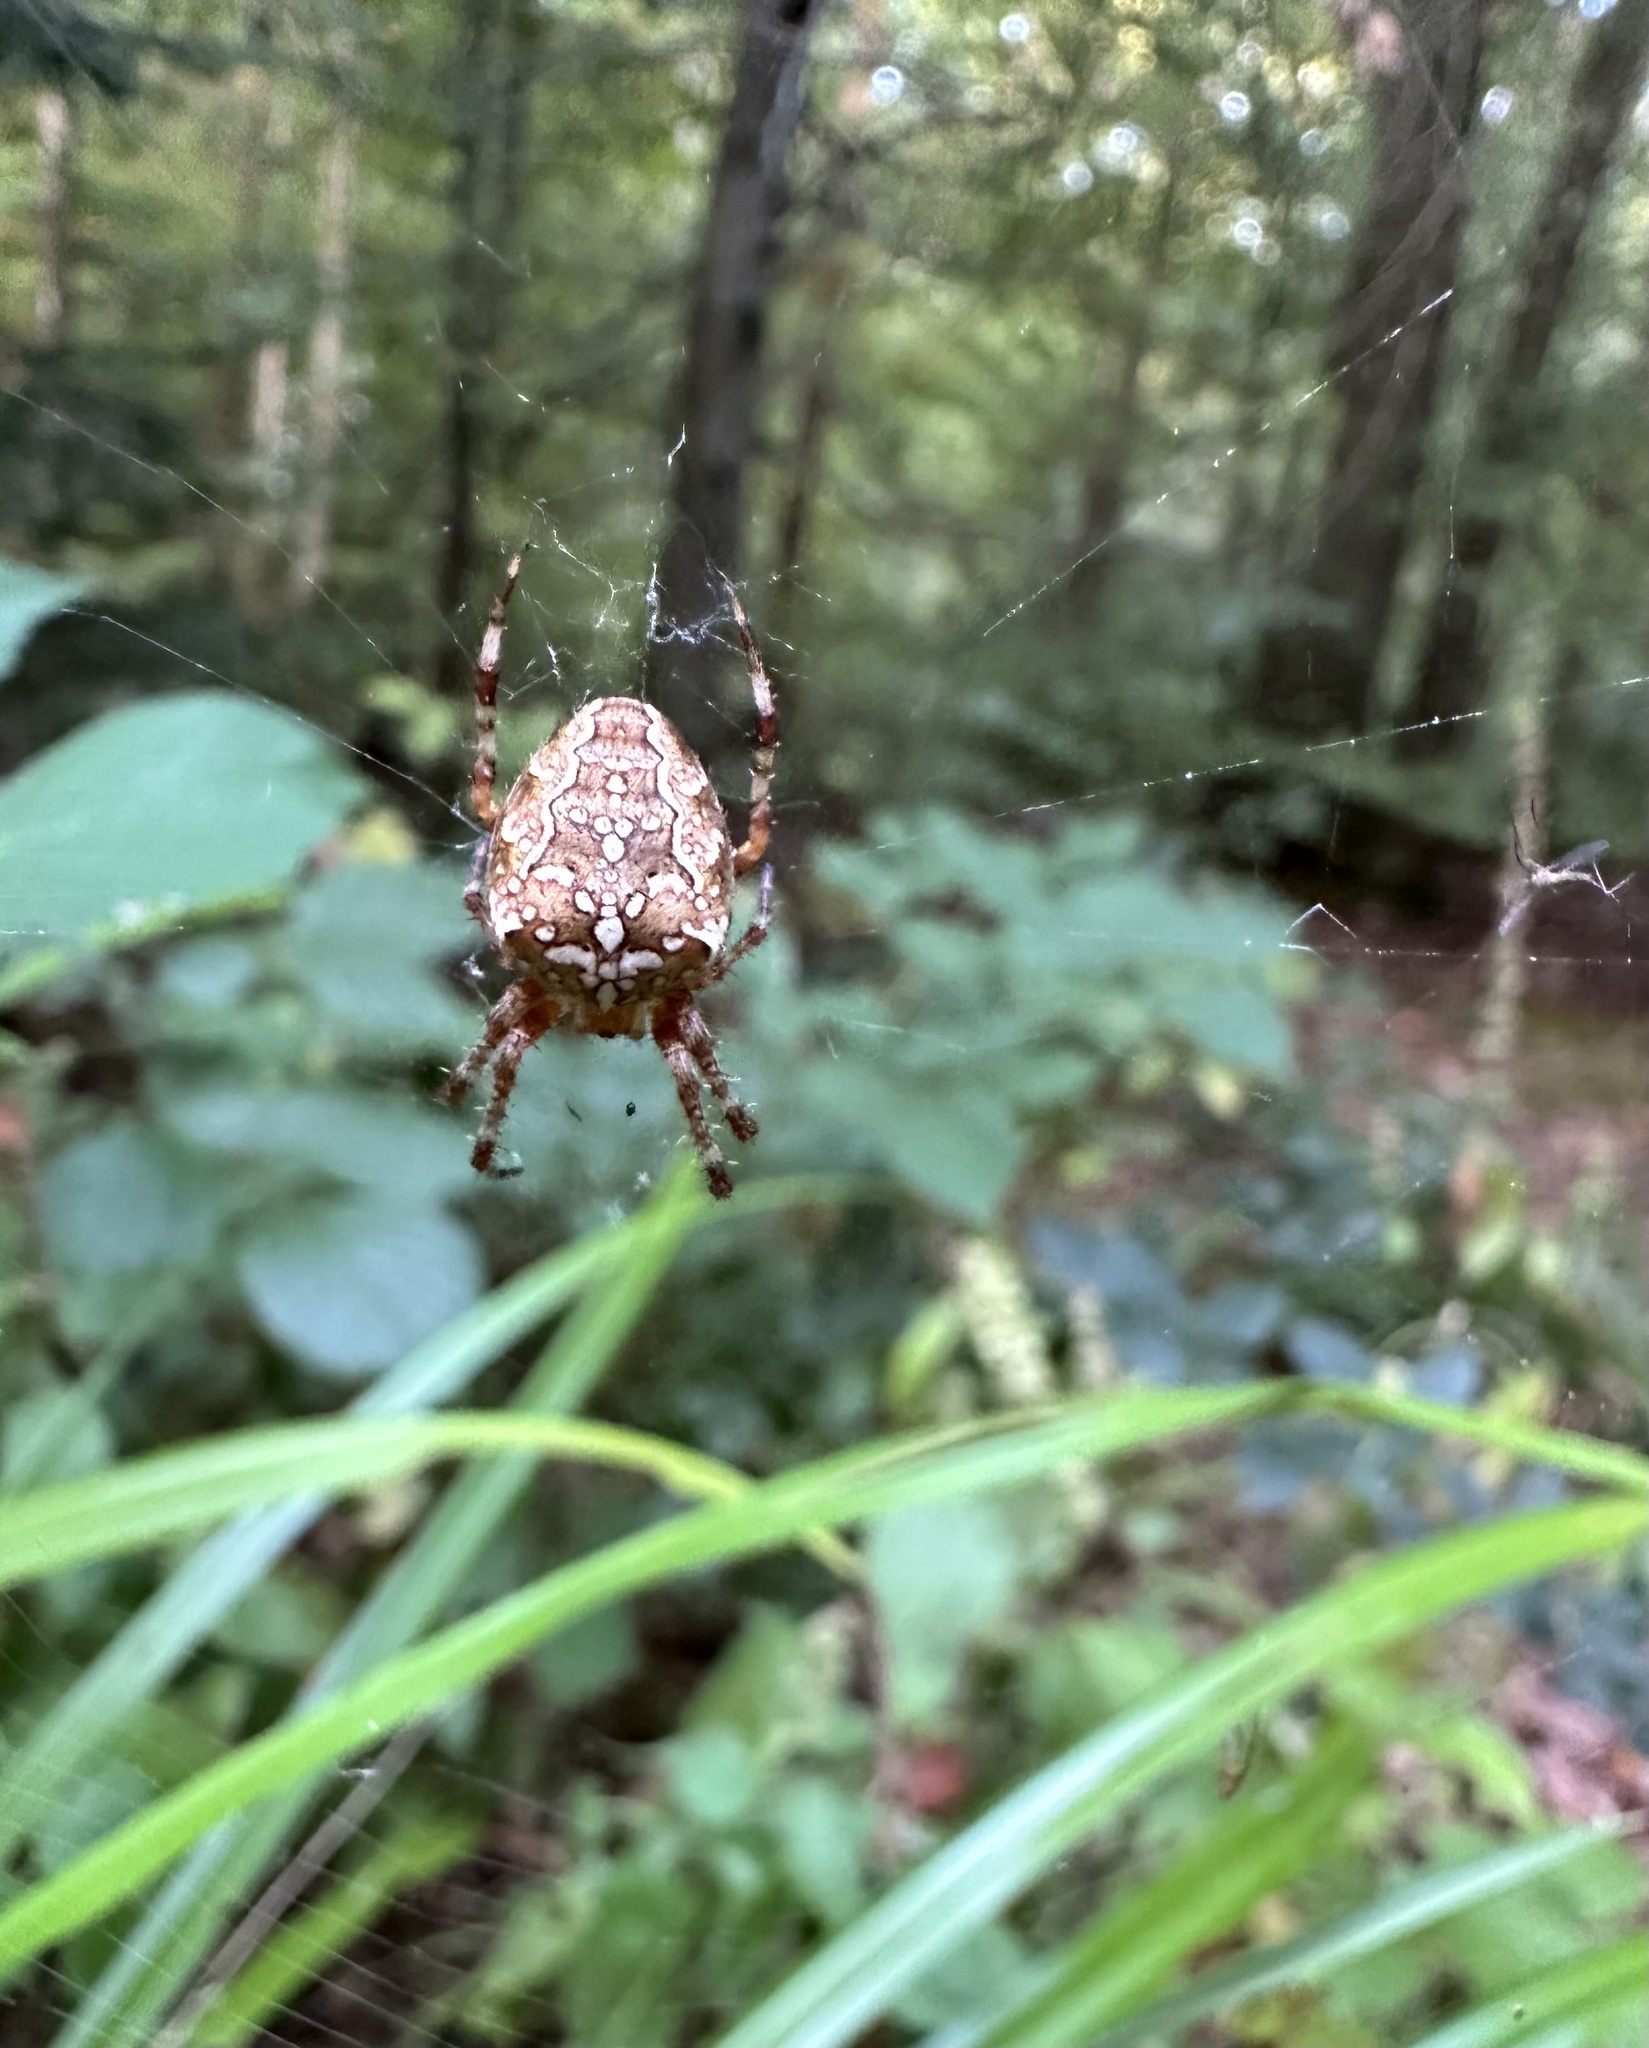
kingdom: Animalia
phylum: Arthropoda
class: Arachnida
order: Araneae
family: Araneidae
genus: Araneus
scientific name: Araneus diadematus
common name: Cross orbweaver
